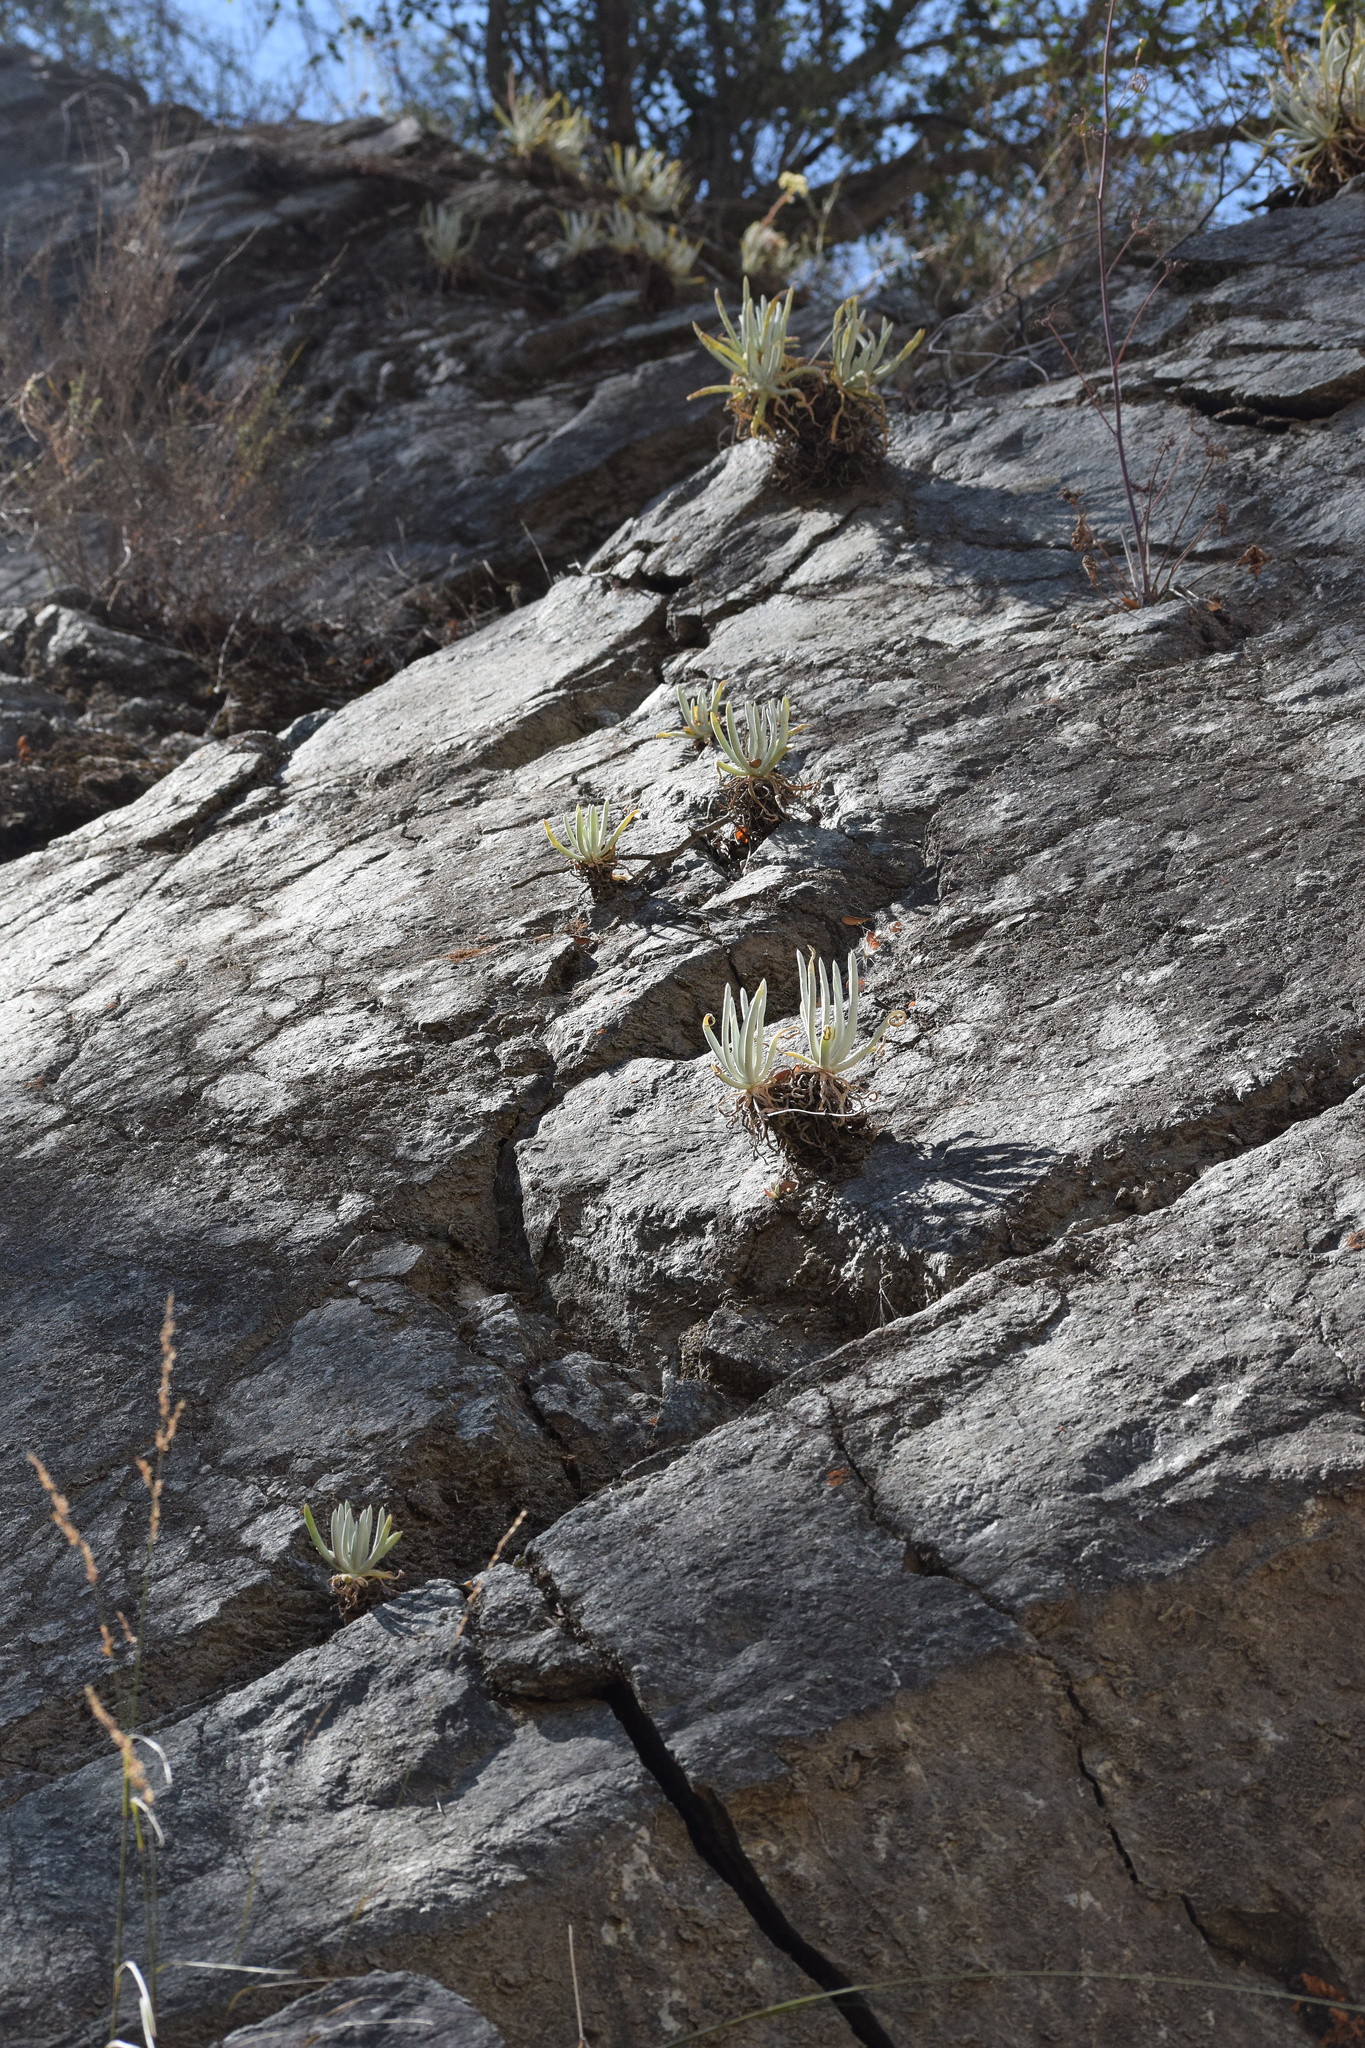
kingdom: Plantae
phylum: Tracheophyta
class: Magnoliopsida
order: Saxifragales
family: Crassulaceae
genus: Dudleya
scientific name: Dudleya densiflora
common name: San gabriel mountains dudleya
